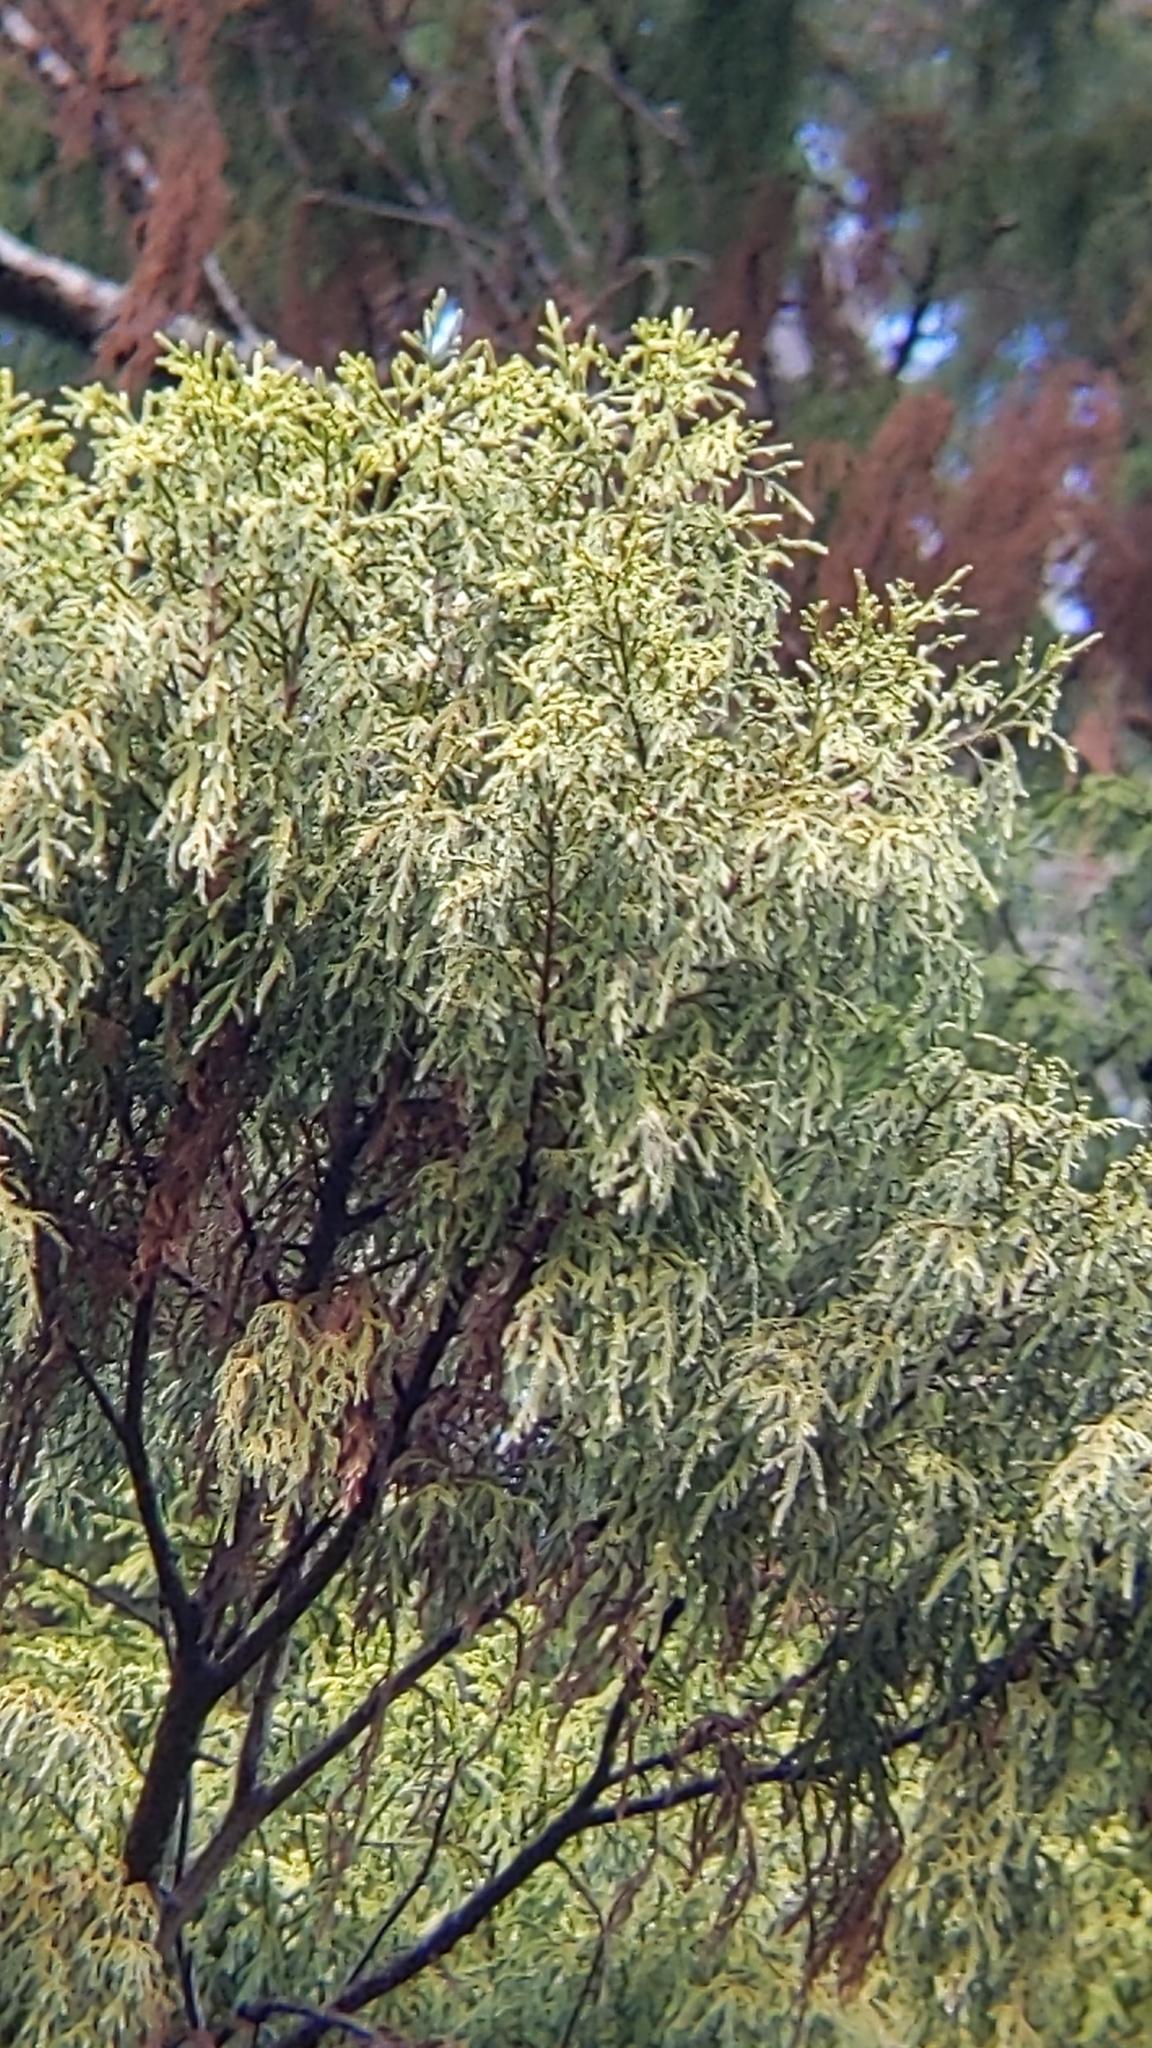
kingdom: Plantae
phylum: Tracheophyta
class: Pinopsida
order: Pinales
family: Podocarpaceae
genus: Dacrydium
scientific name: Dacrydium cupressinum
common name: Red pine
